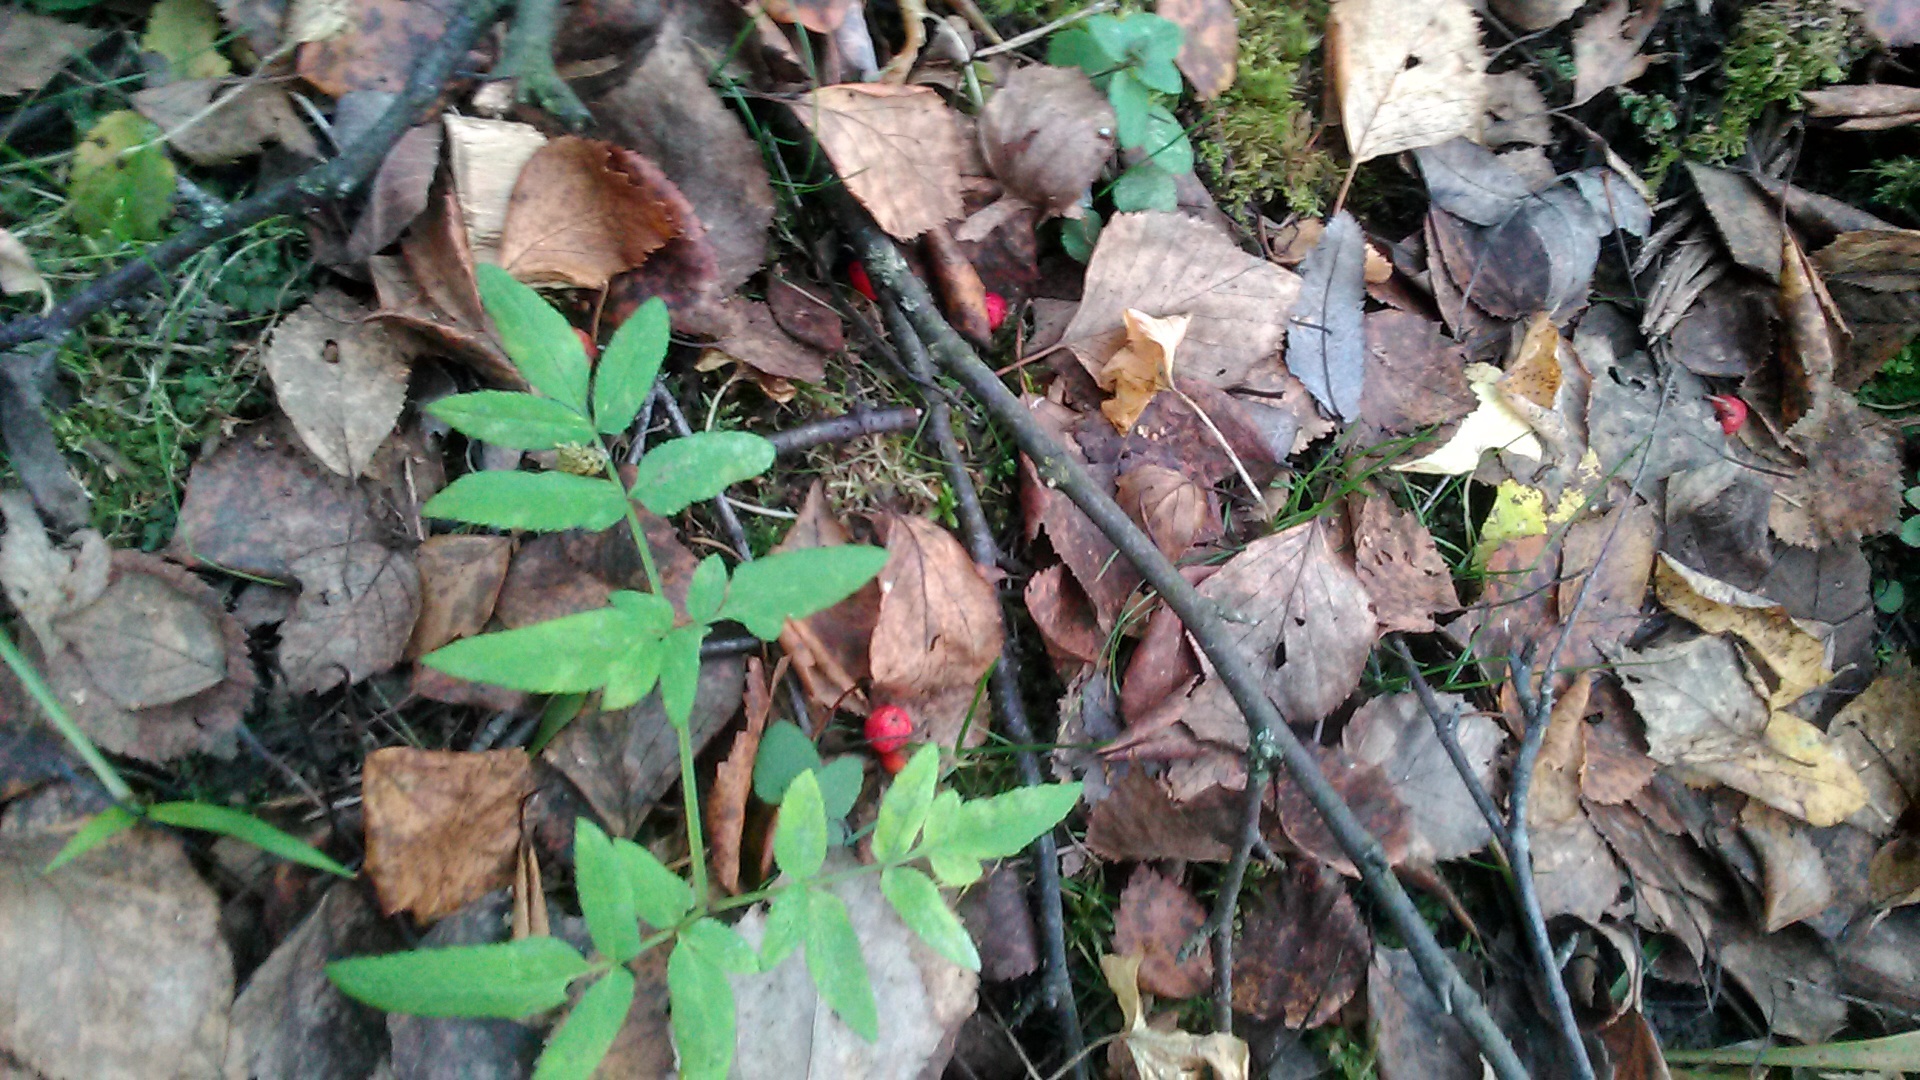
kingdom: Plantae
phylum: Tracheophyta
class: Magnoliopsida
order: Apiales
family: Apiaceae
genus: Angelica
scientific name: Angelica sylvestris
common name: Wild angelica
